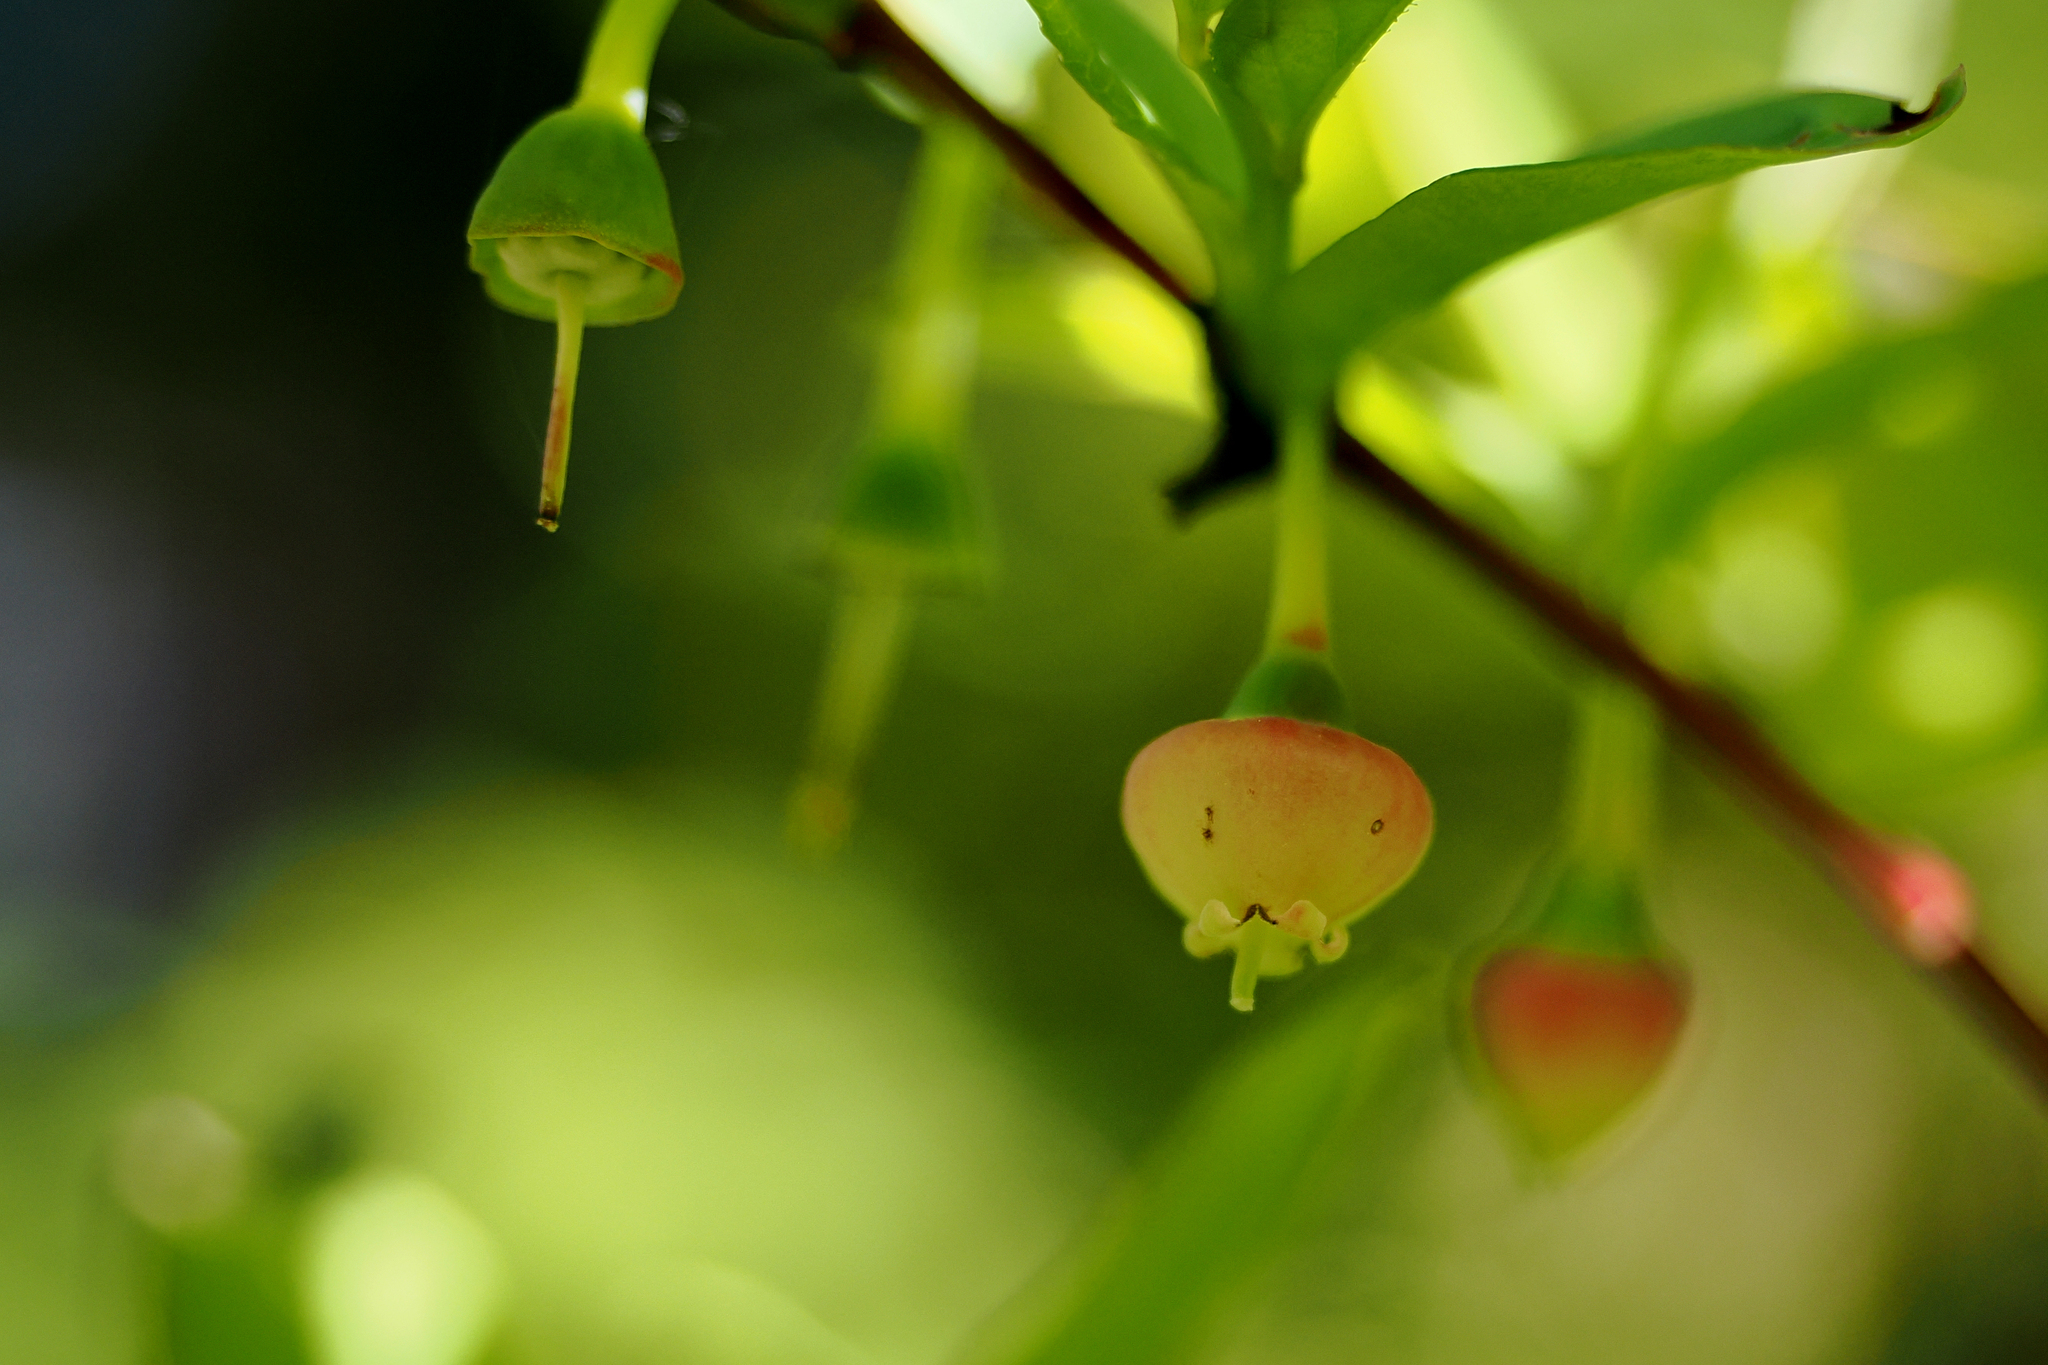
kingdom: Plantae
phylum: Tracheophyta
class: Magnoliopsida
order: Ericales
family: Ericaceae
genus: Vaccinium
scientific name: Vaccinium ovalifolium
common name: Early blueberry
